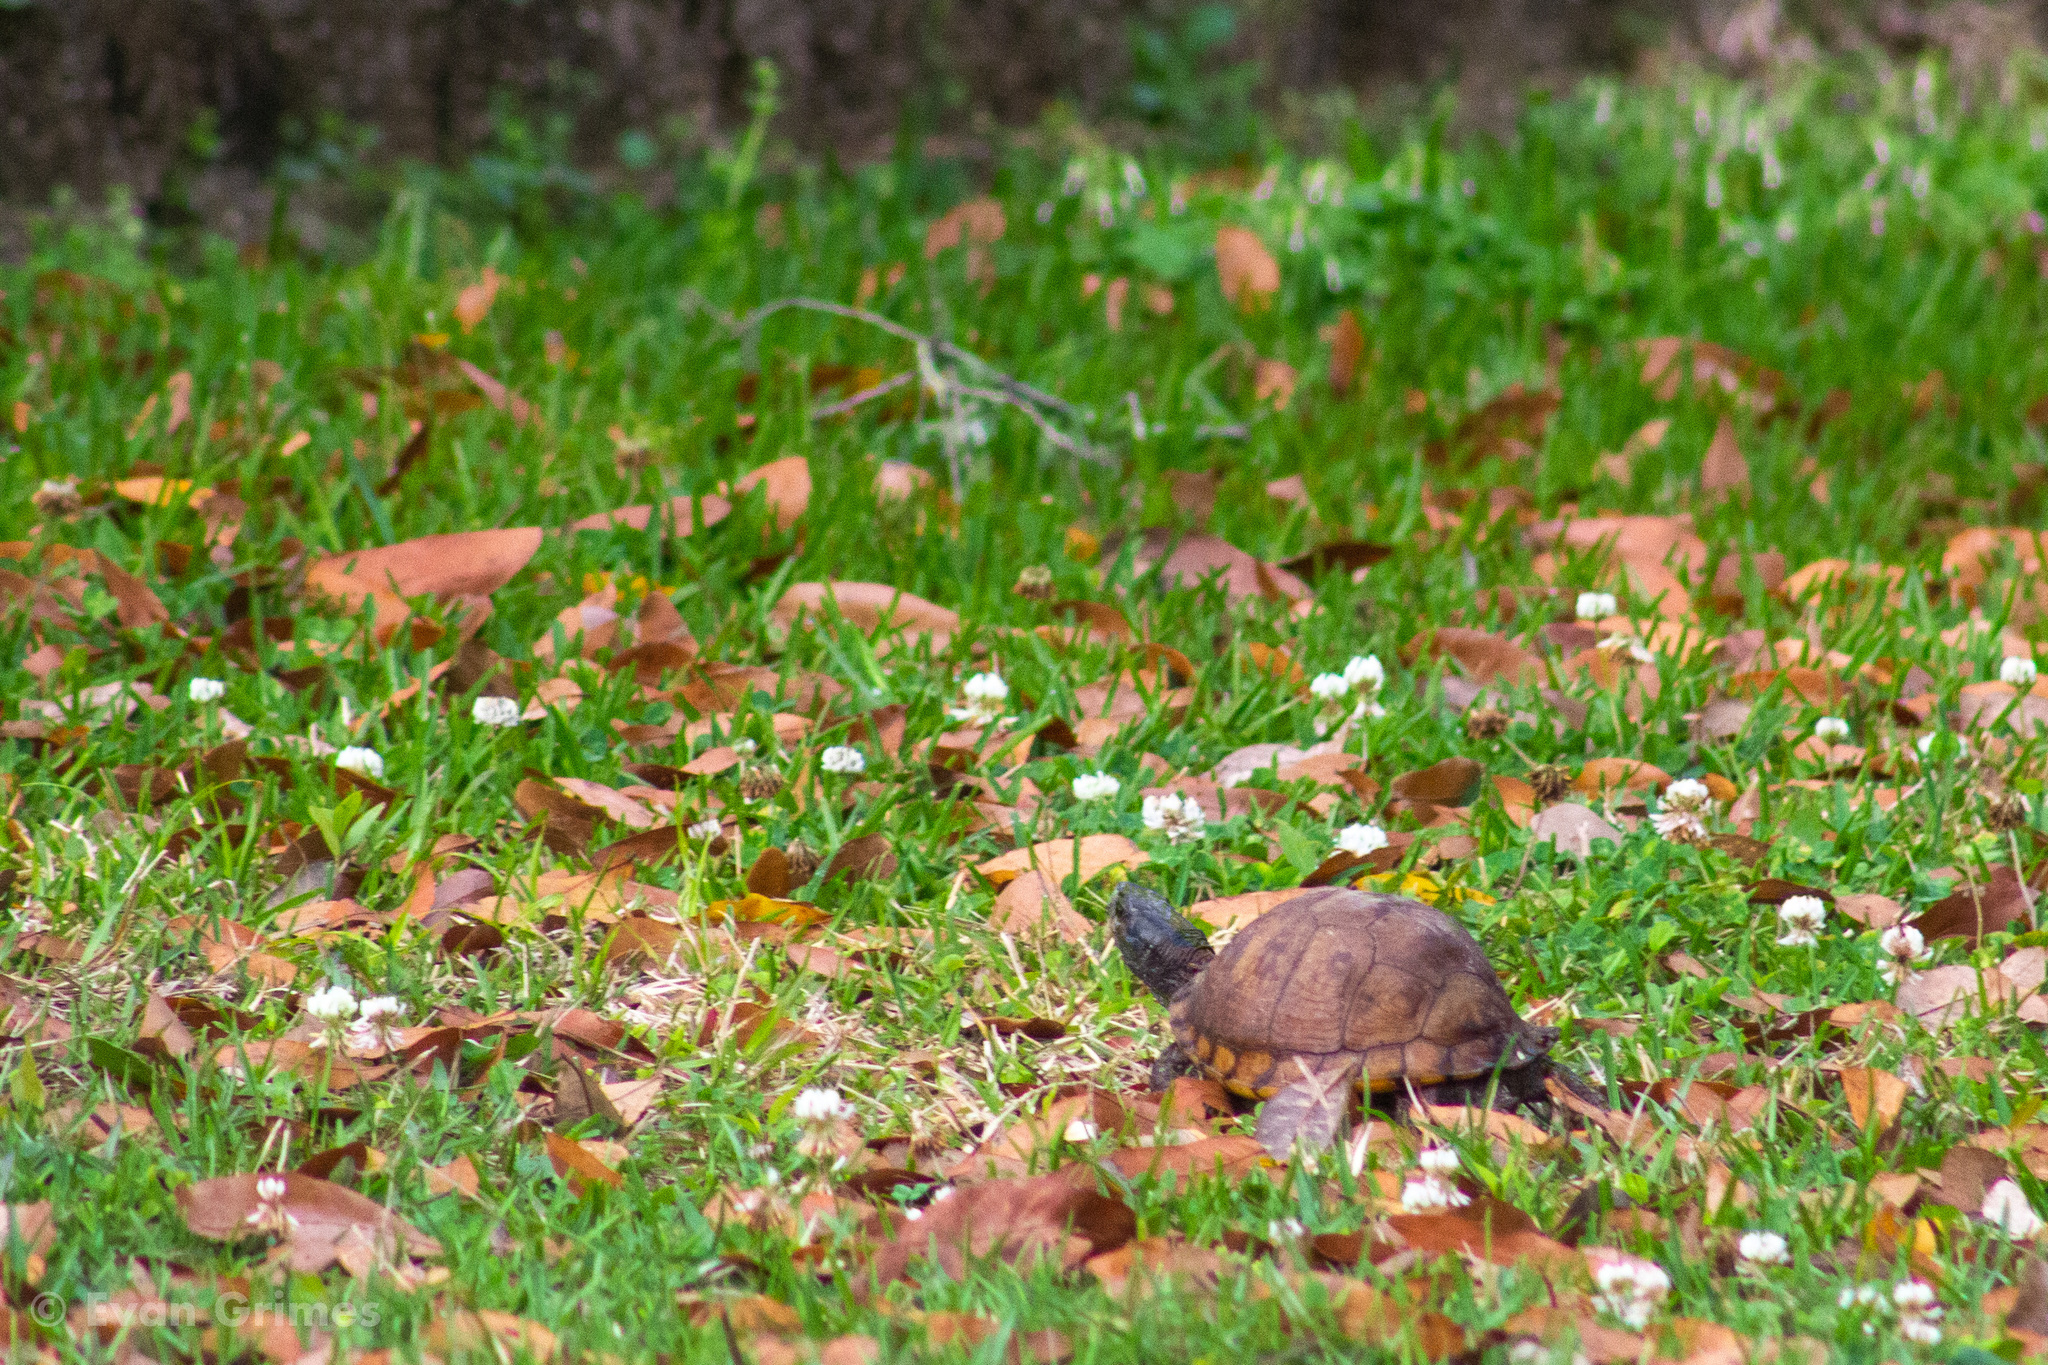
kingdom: Animalia
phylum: Chordata
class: Testudines
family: Emydidae
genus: Terrapene
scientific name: Terrapene carolina
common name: Common box turtle
